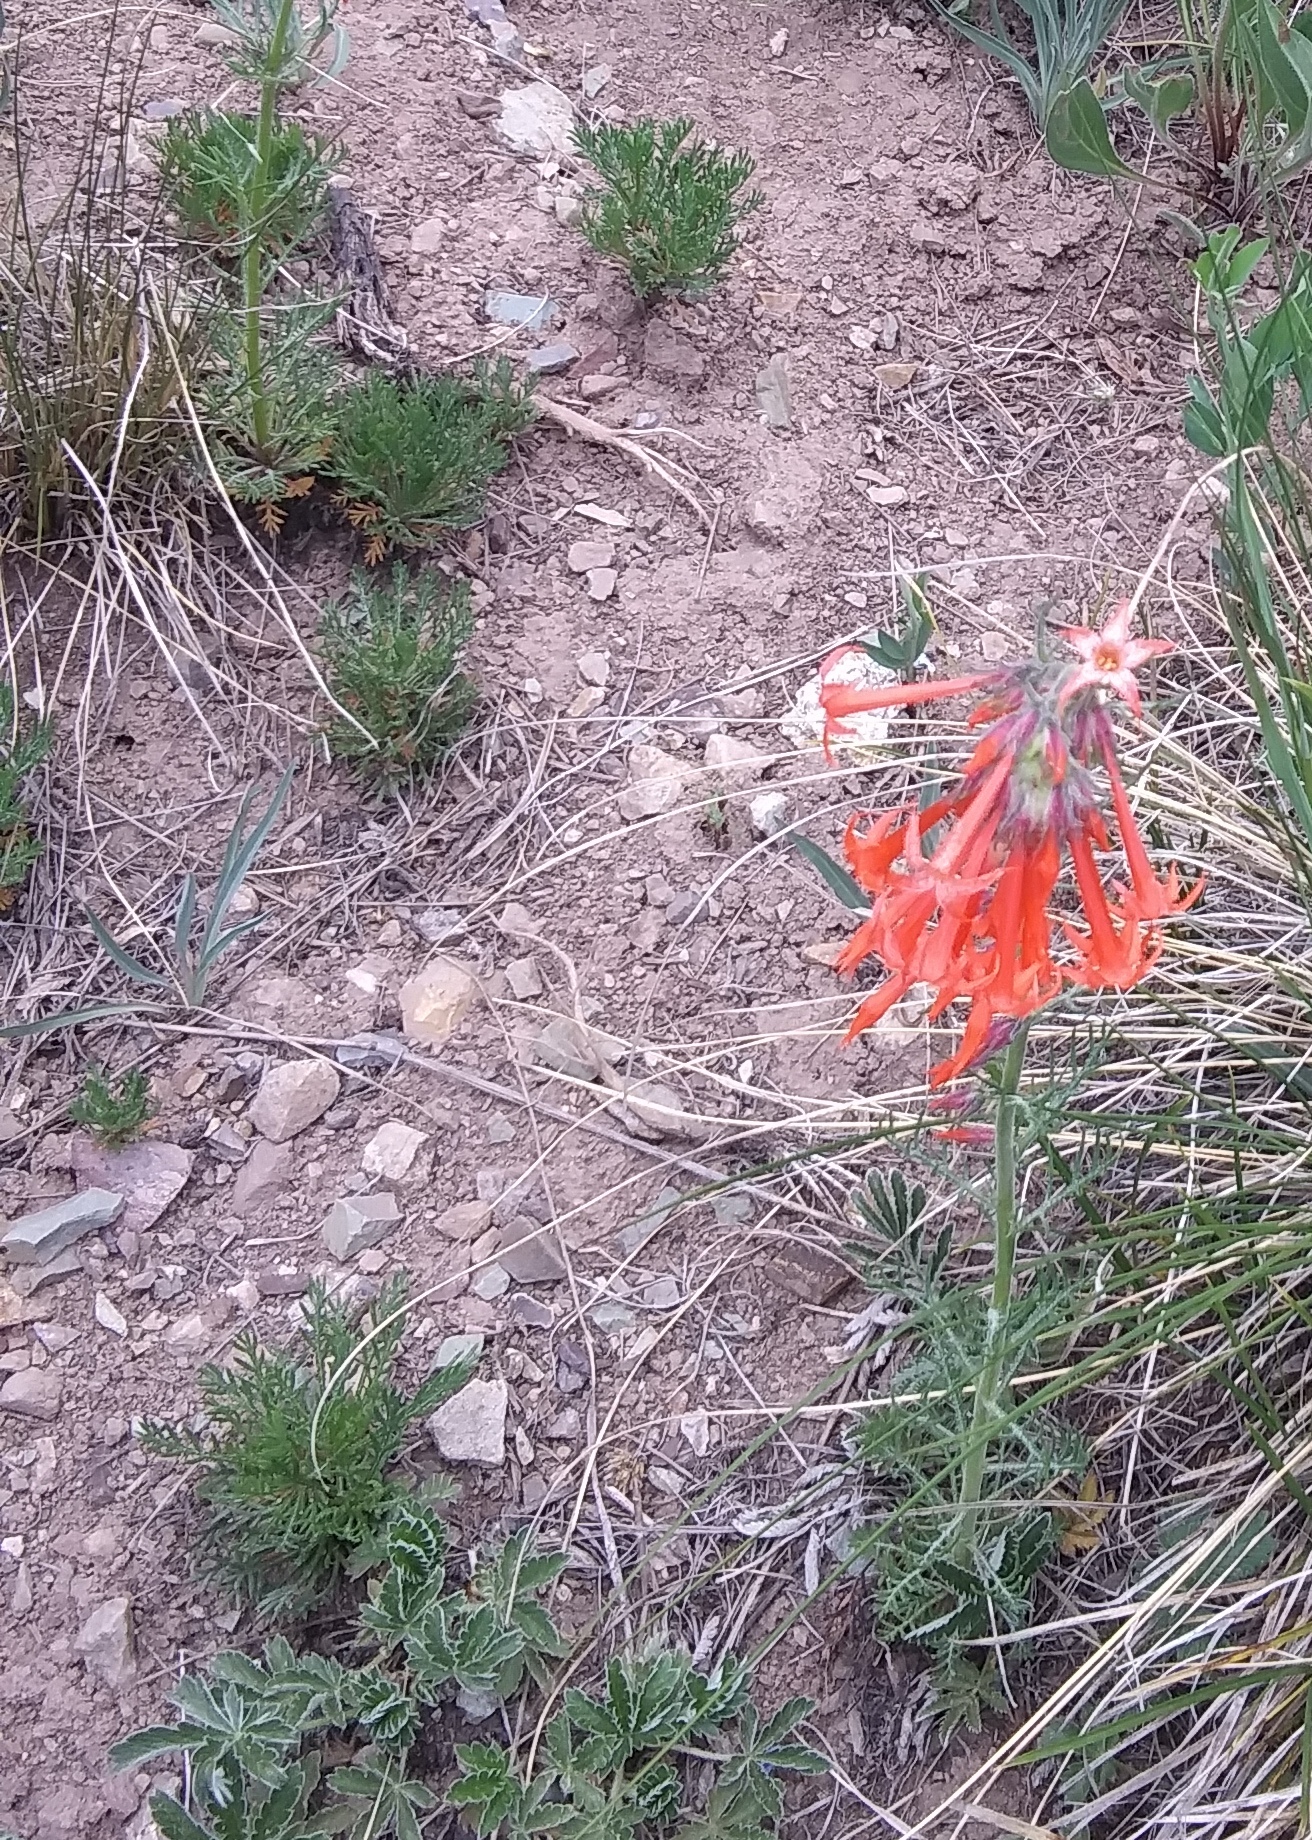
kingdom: Plantae
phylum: Tracheophyta
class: Magnoliopsida
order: Ericales
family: Polemoniaceae
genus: Ipomopsis
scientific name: Ipomopsis aggregata
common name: Scarlet gilia
